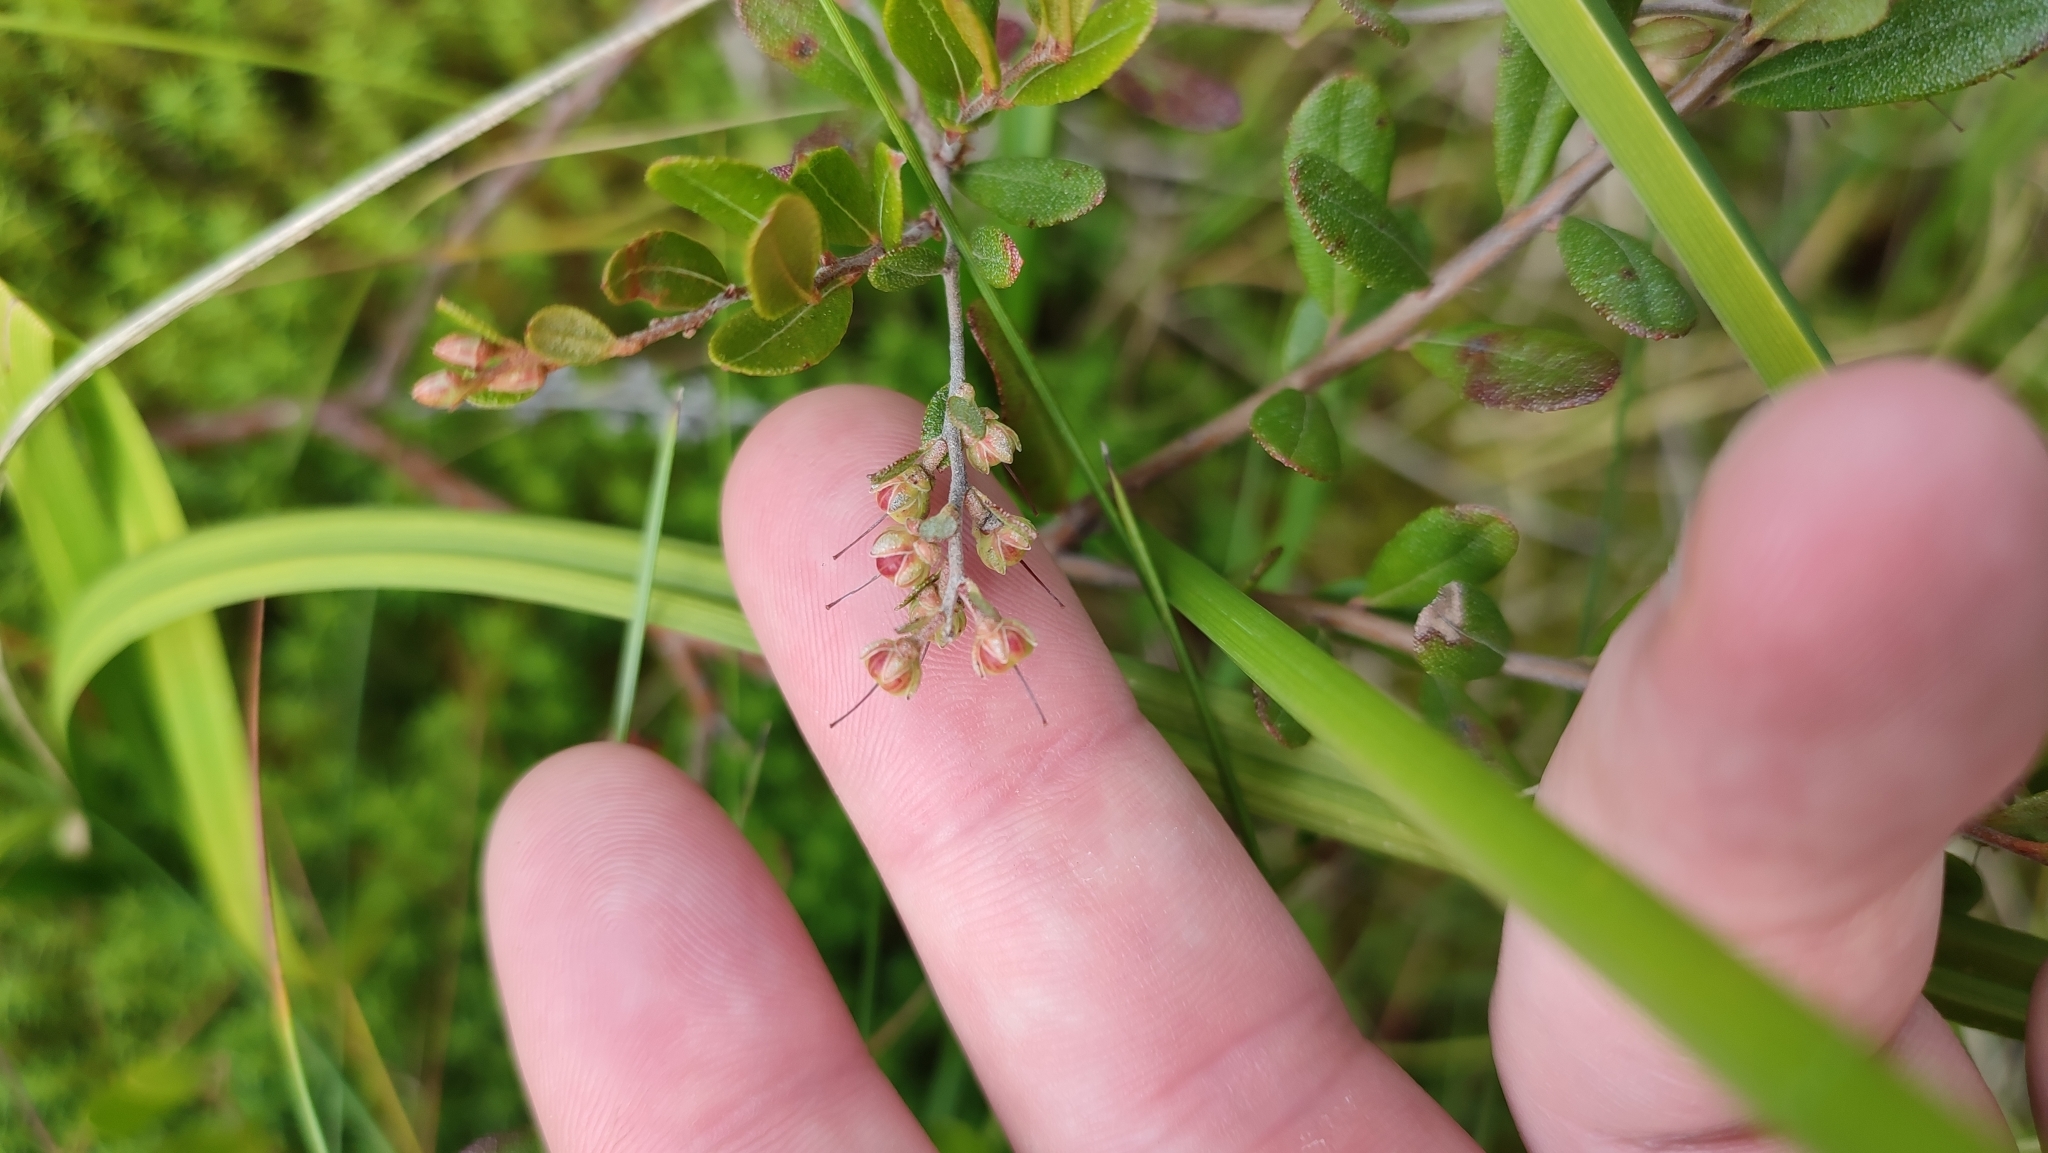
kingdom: Plantae
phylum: Tracheophyta
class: Magnoliopsida
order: Ericales
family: Ericaceae
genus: Chamaedaphne
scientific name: Chamaedaphne calyculata
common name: Leatherleaf
